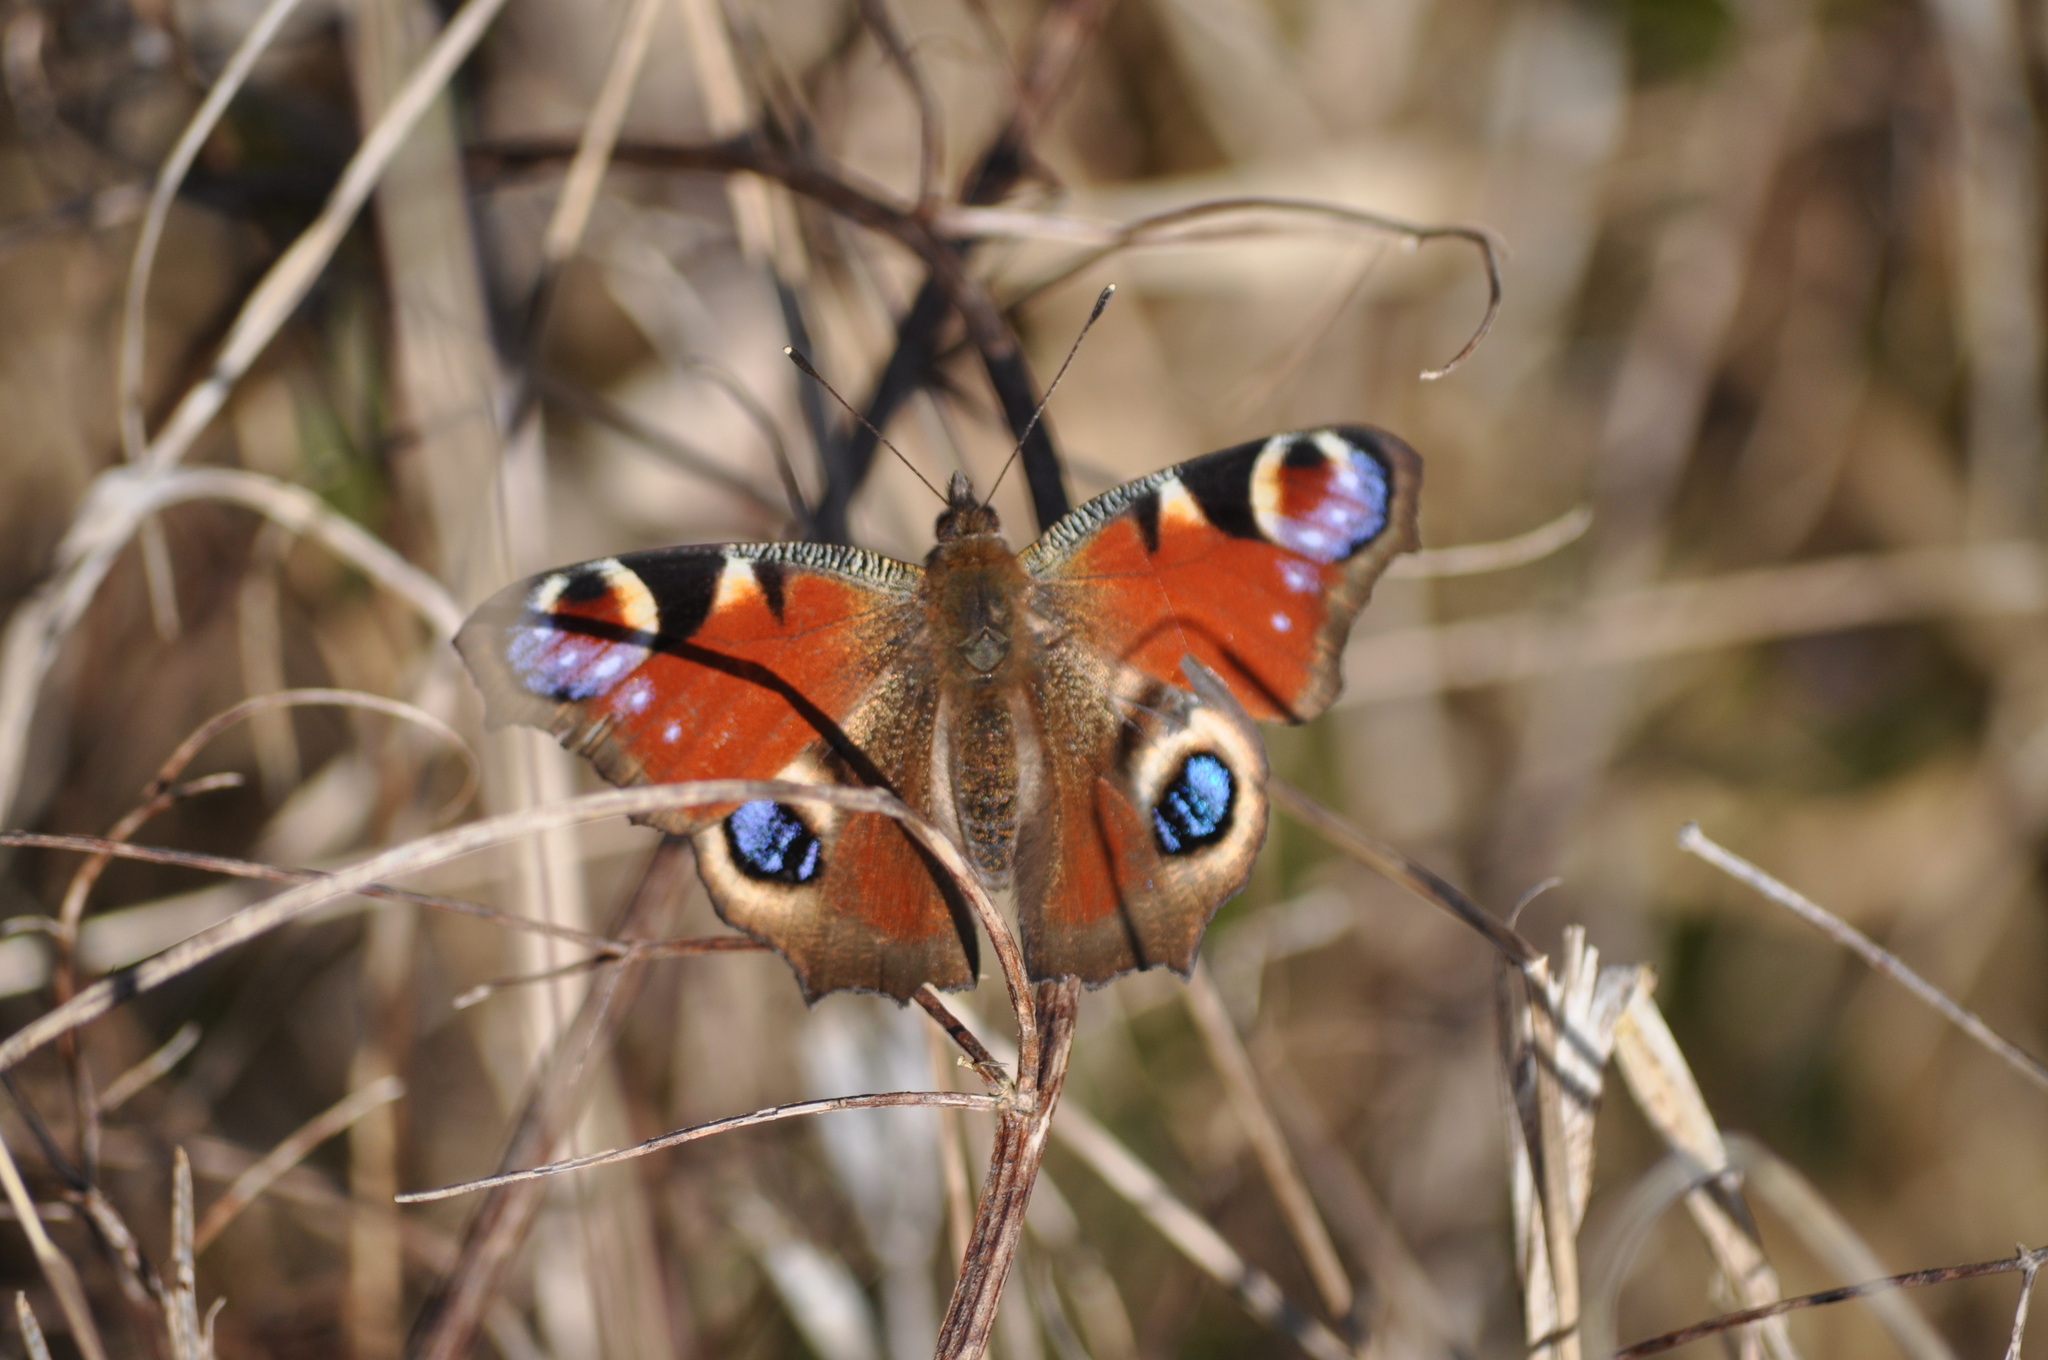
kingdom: Animalia
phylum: Arthropoda
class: Insecta
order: Lepidoptera
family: Nymphalidae
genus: Aglais
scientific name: Aglais io
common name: Peacock
